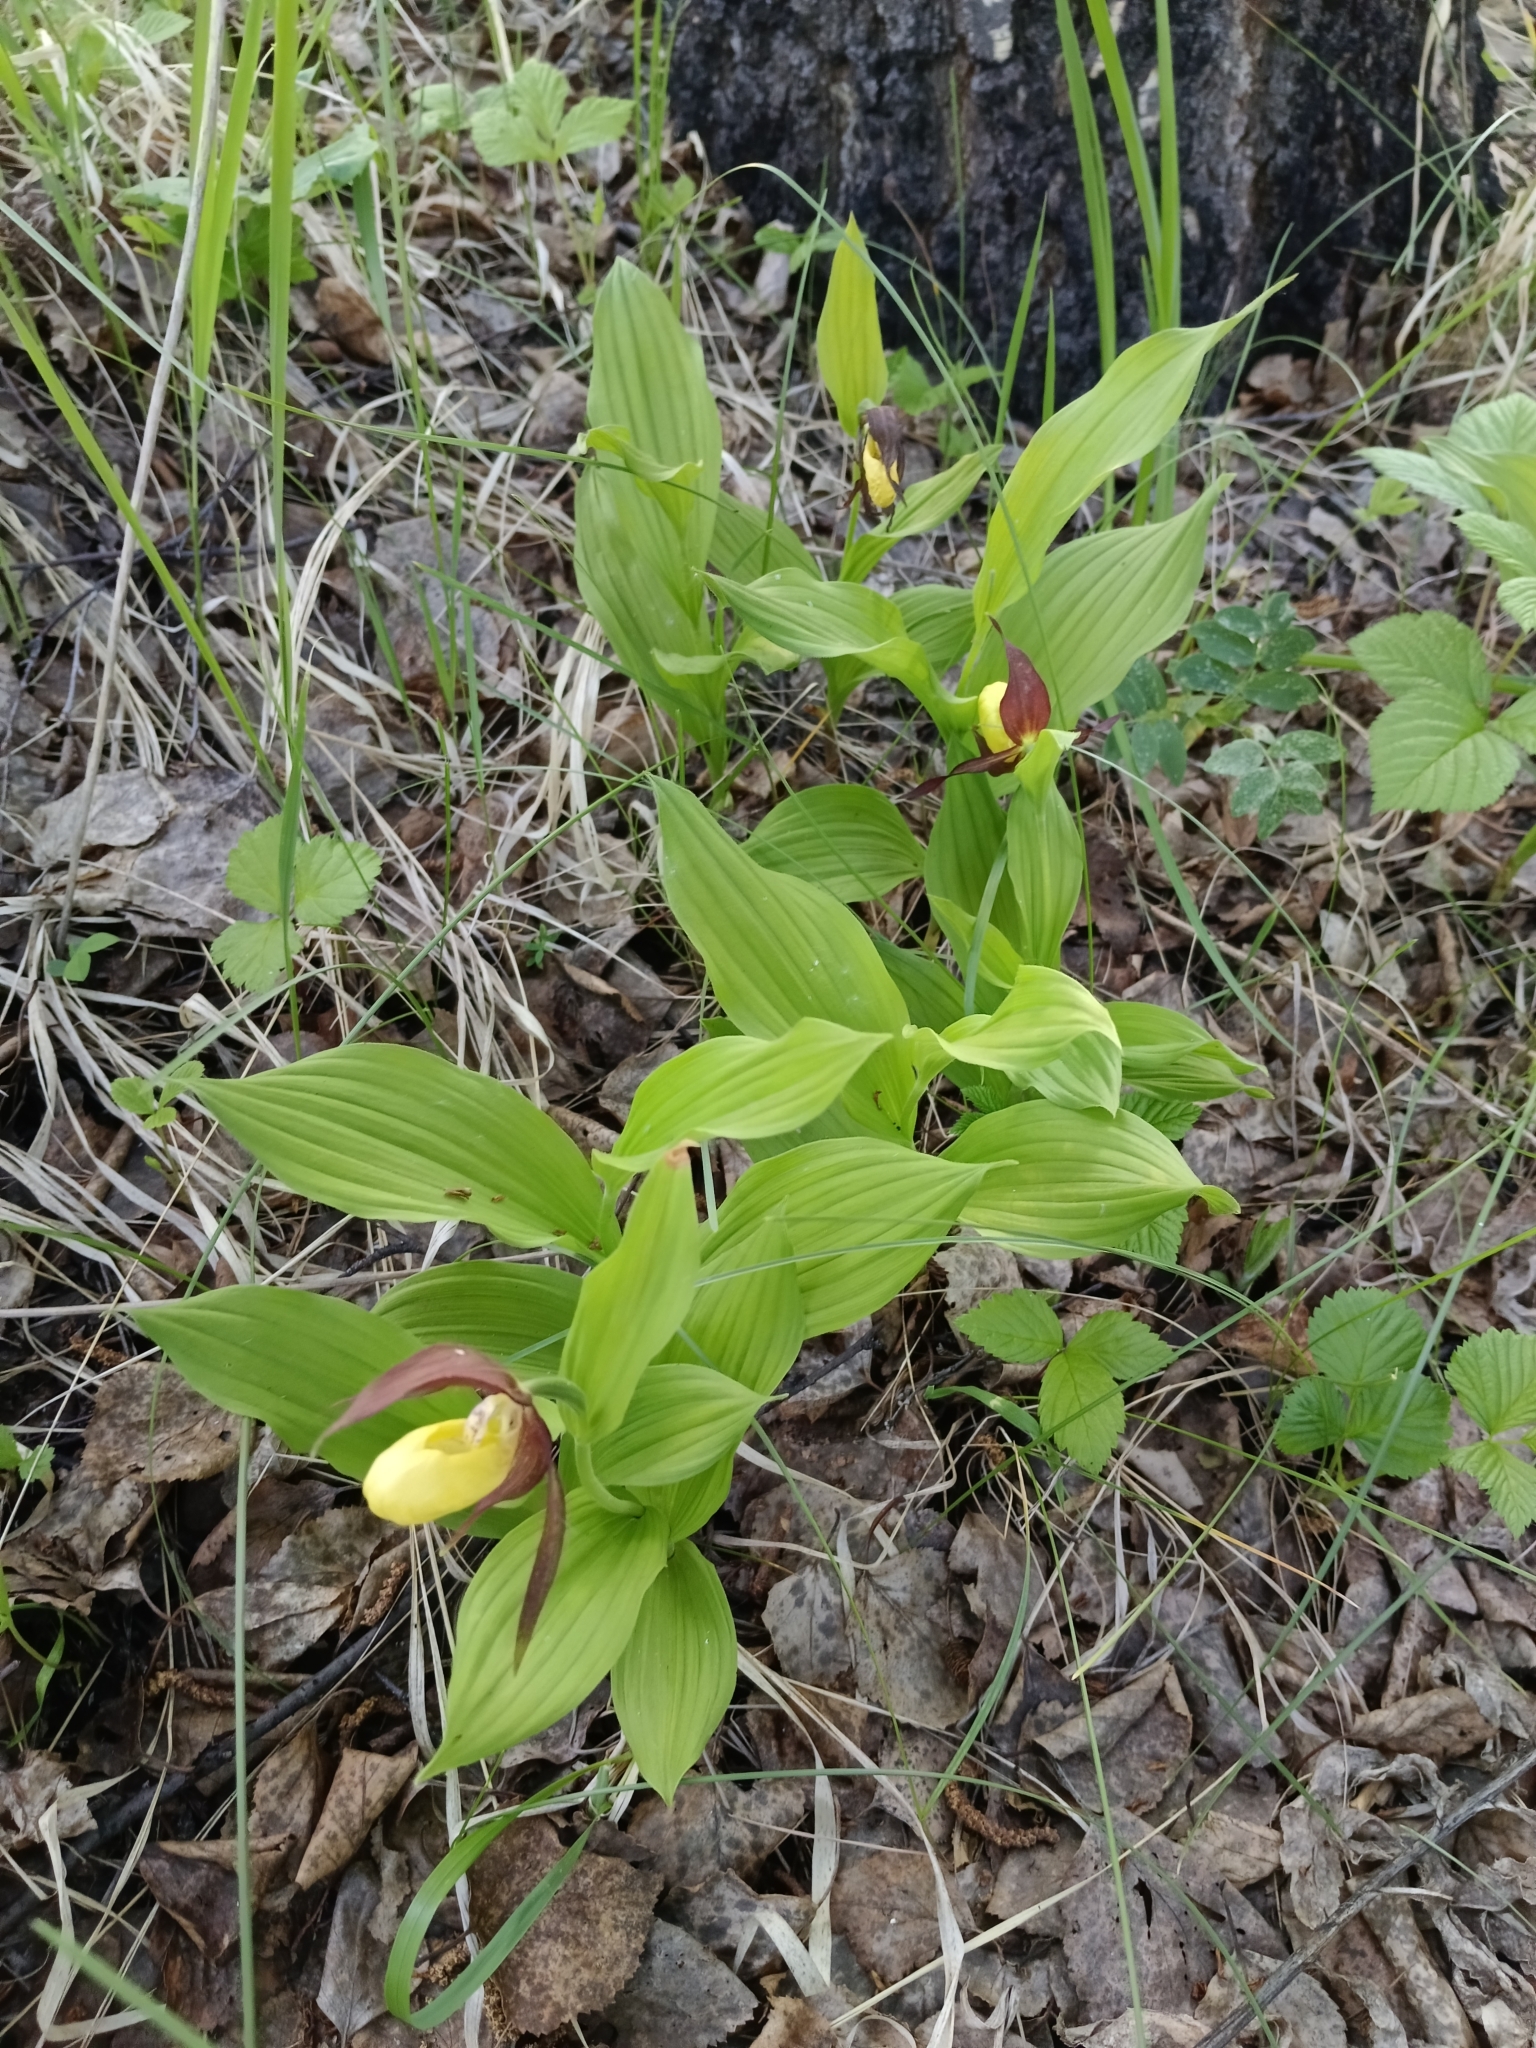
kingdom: Plantae
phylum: Tracheophyta
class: Liliopsida
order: Asparagales
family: Orchidaceae
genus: Cypripedium
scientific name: Cypripedium calceolus
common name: Lady's-slipper
